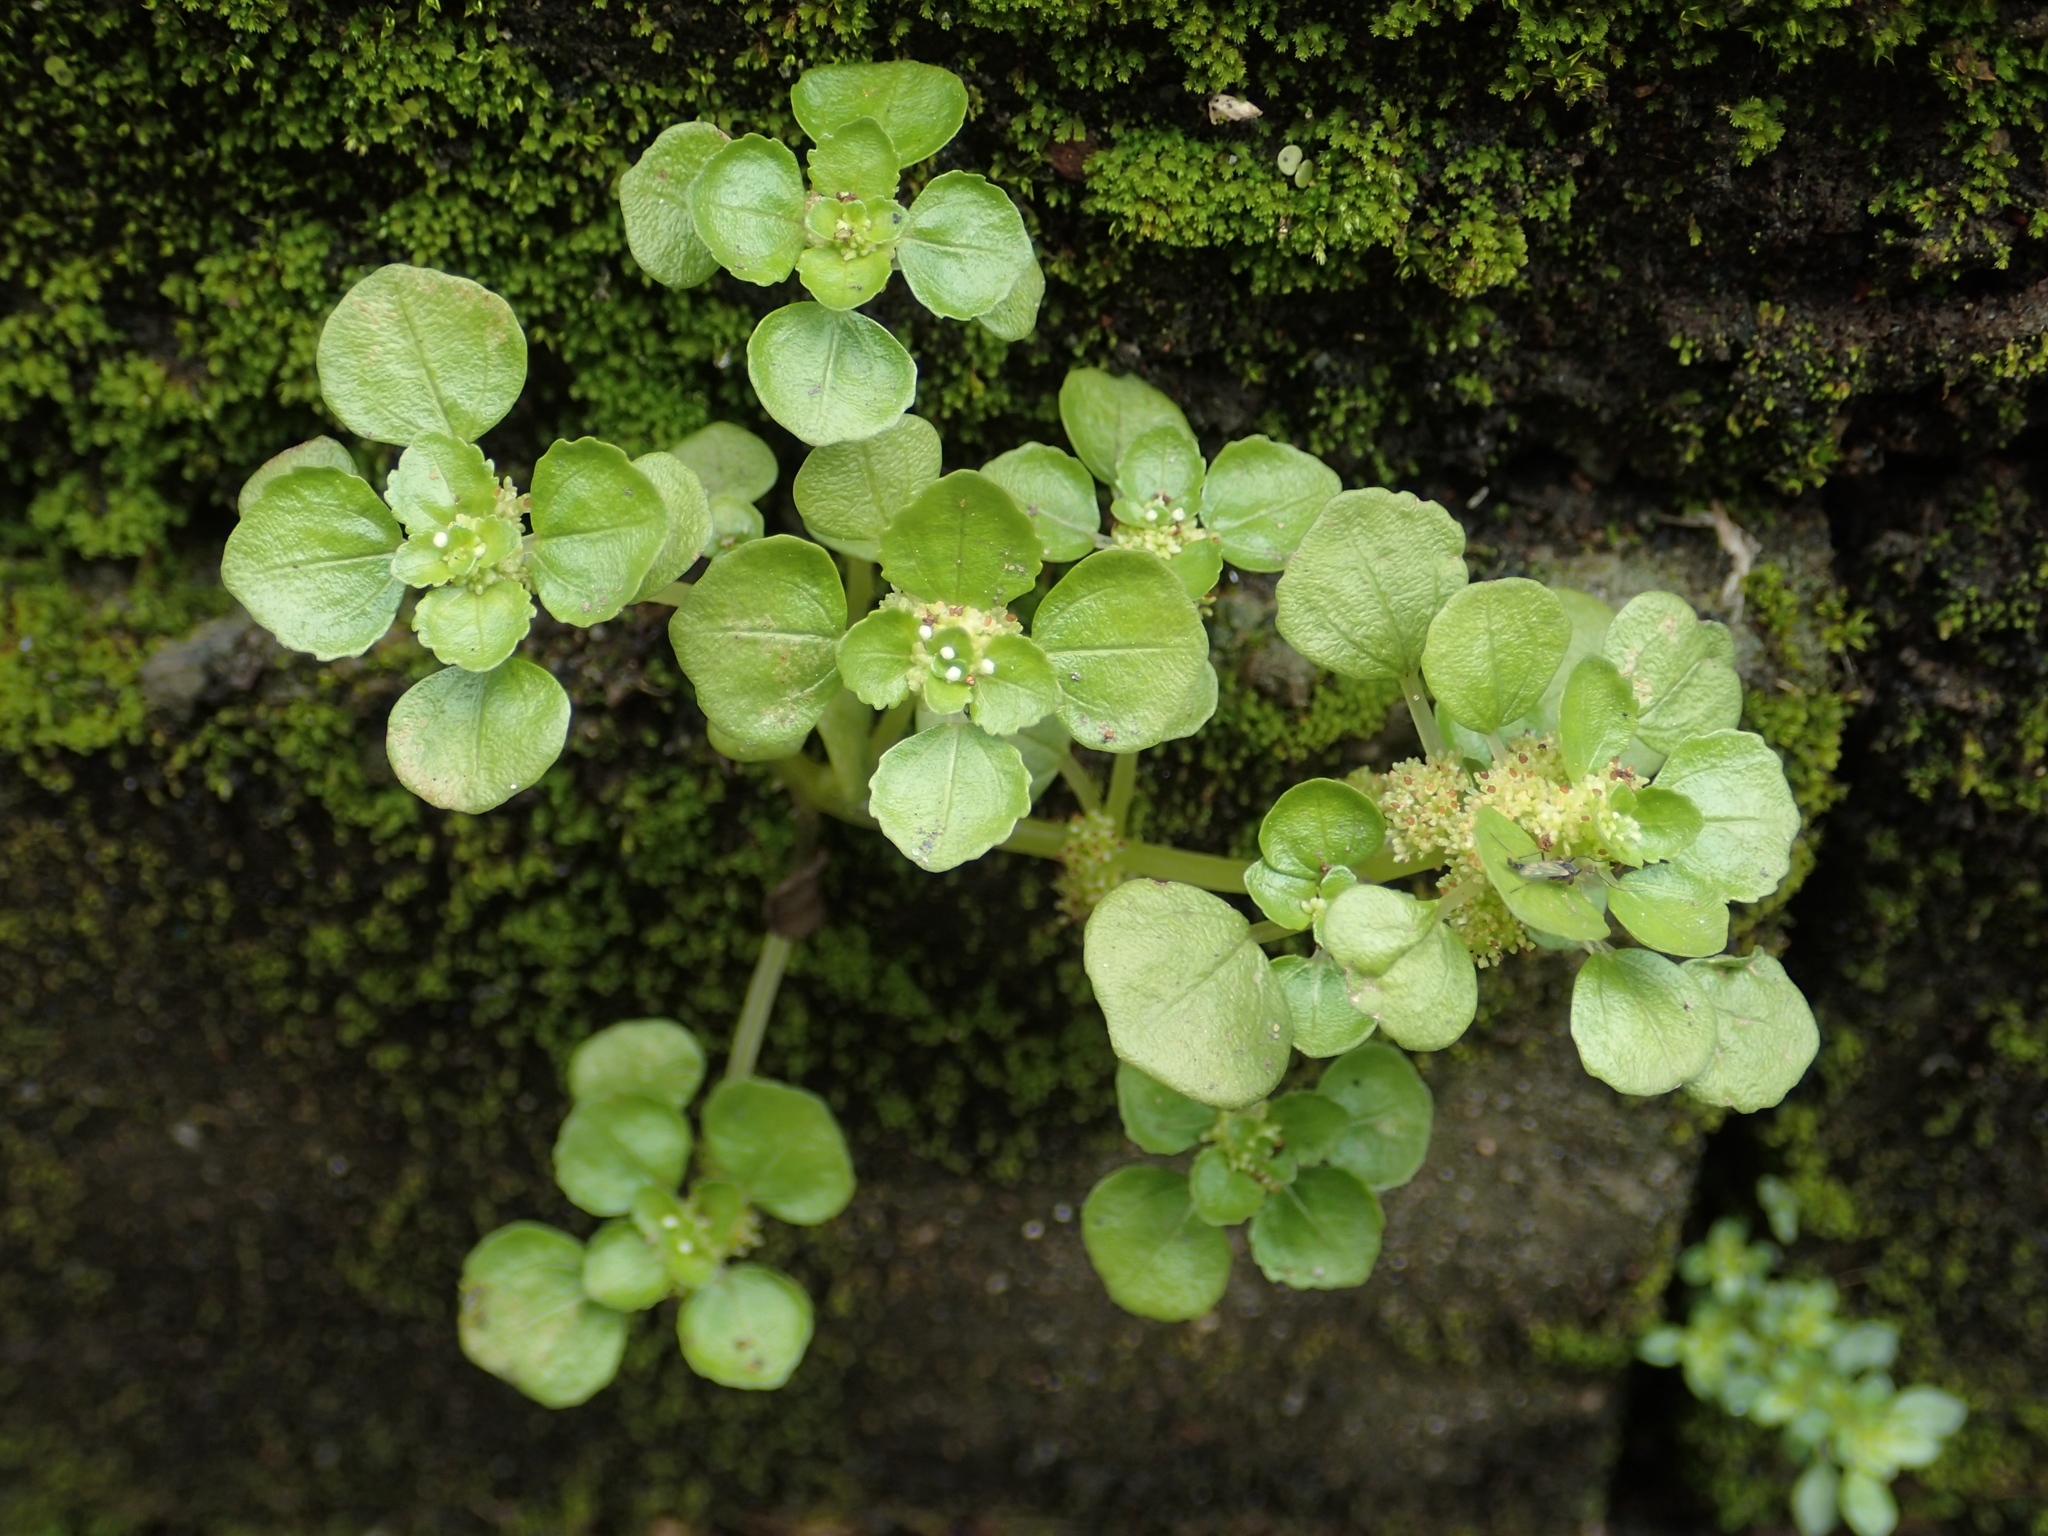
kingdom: Plantae
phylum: Tracheophyta
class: Magnoliopsida
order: Rosales
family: Urticaceae
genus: Pilea
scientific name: Pilea peploides
